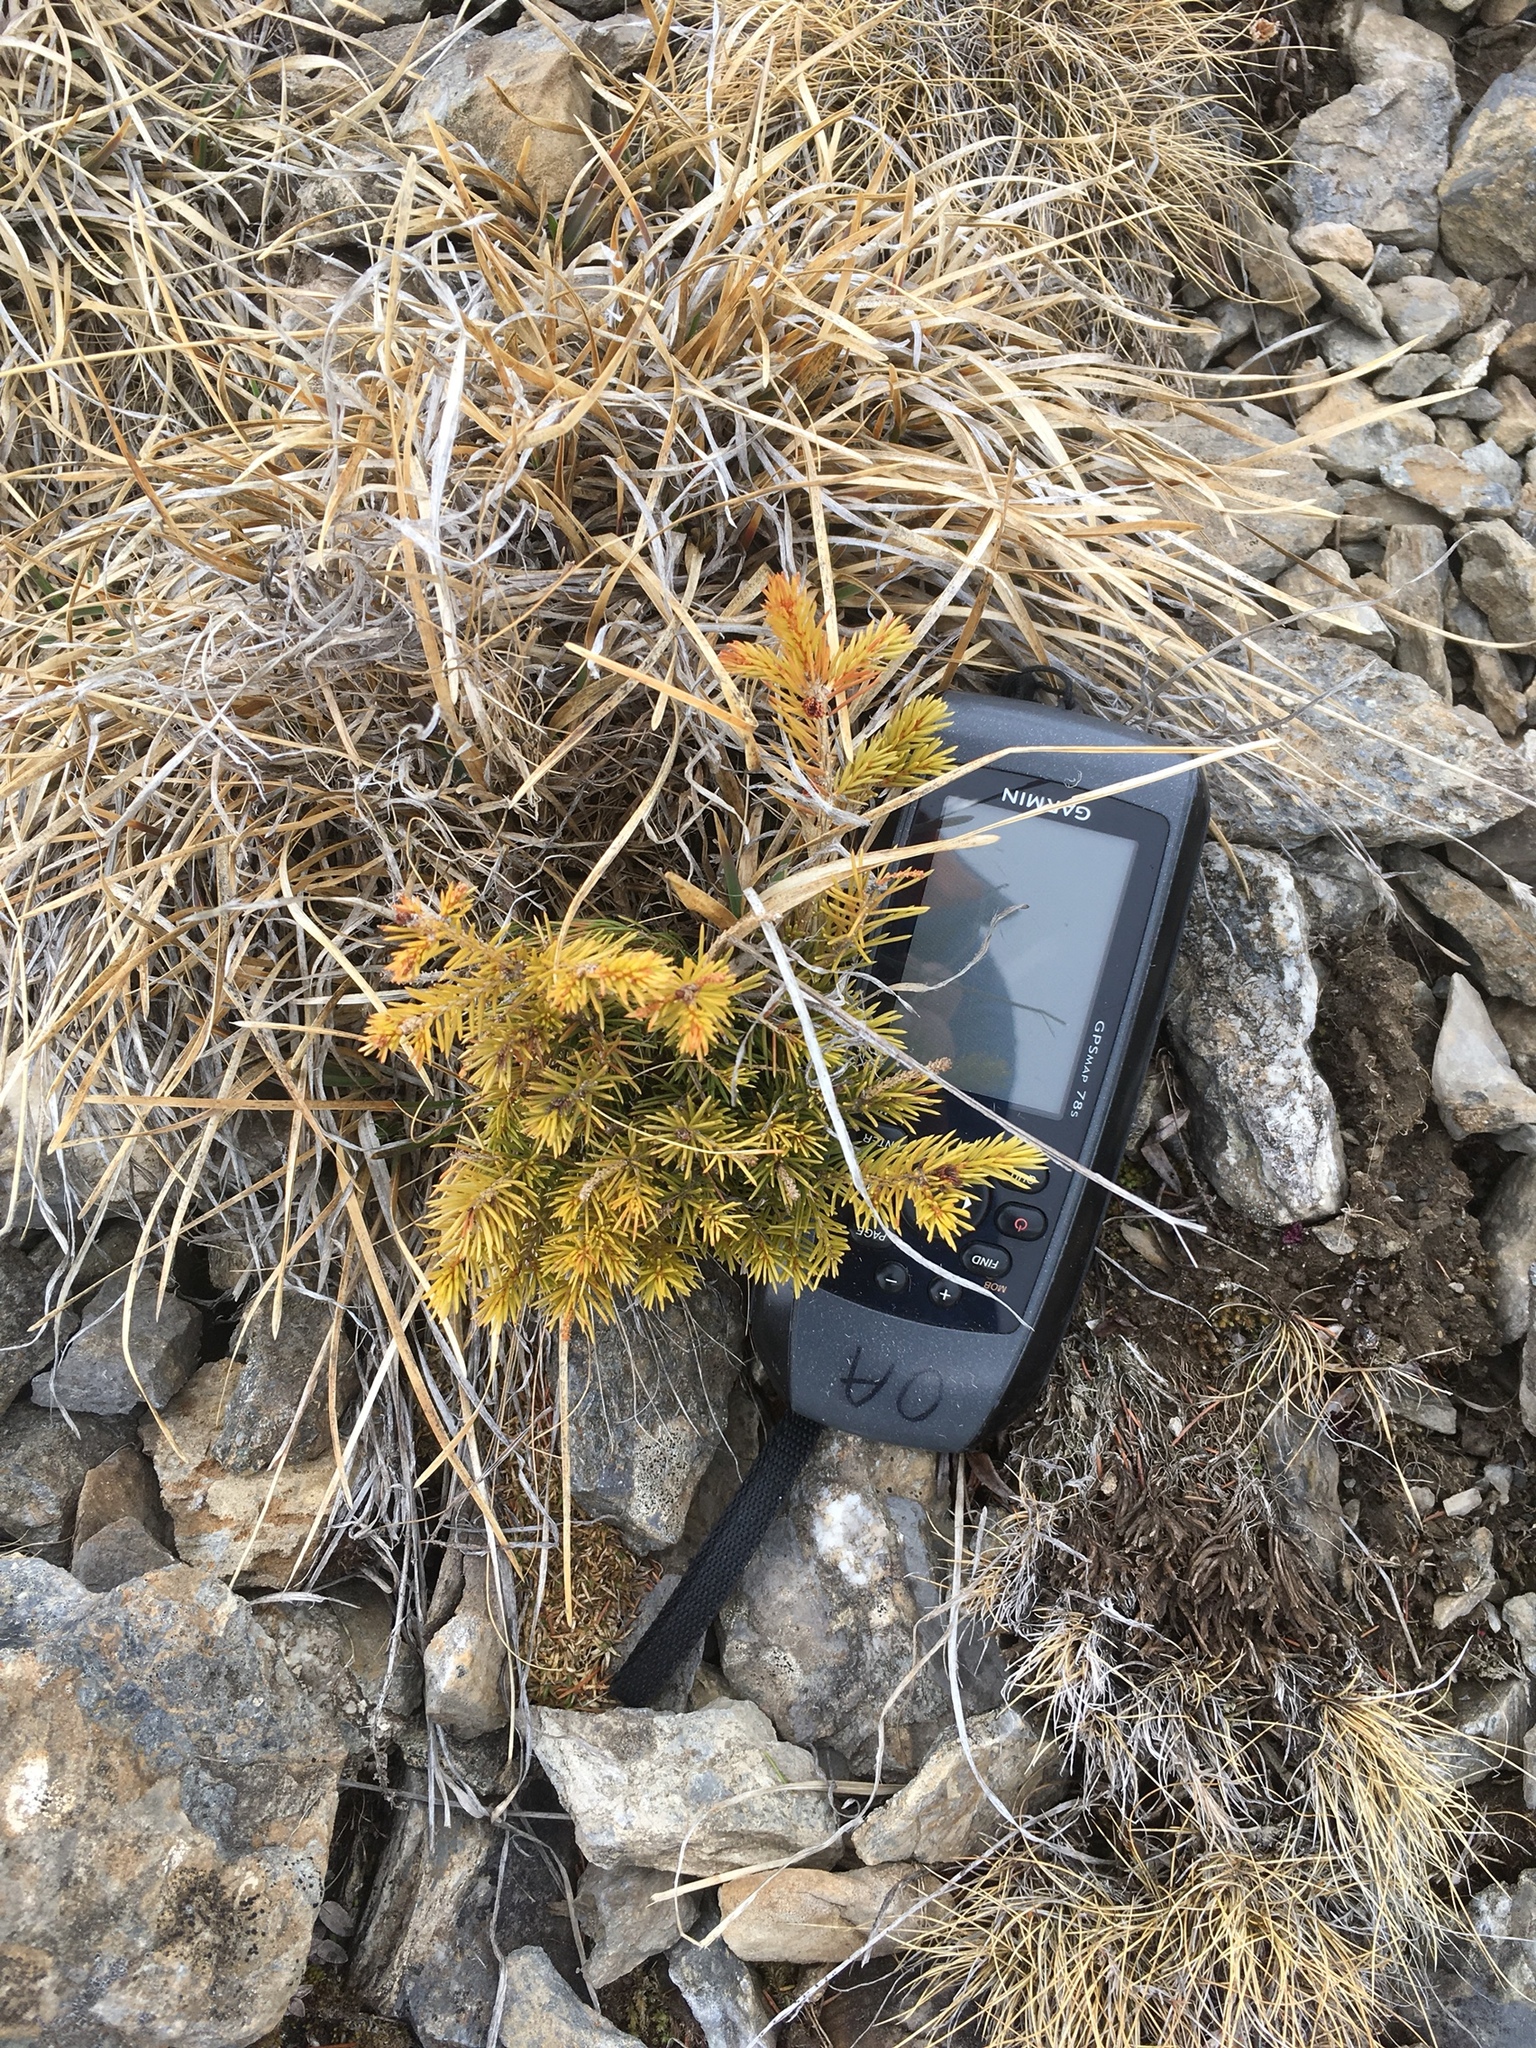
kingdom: Plantae
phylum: Tracheophyta
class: Pinopsida
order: Pinales
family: Pinaceae
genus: Picea
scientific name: Picea abies
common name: Norway spruce
